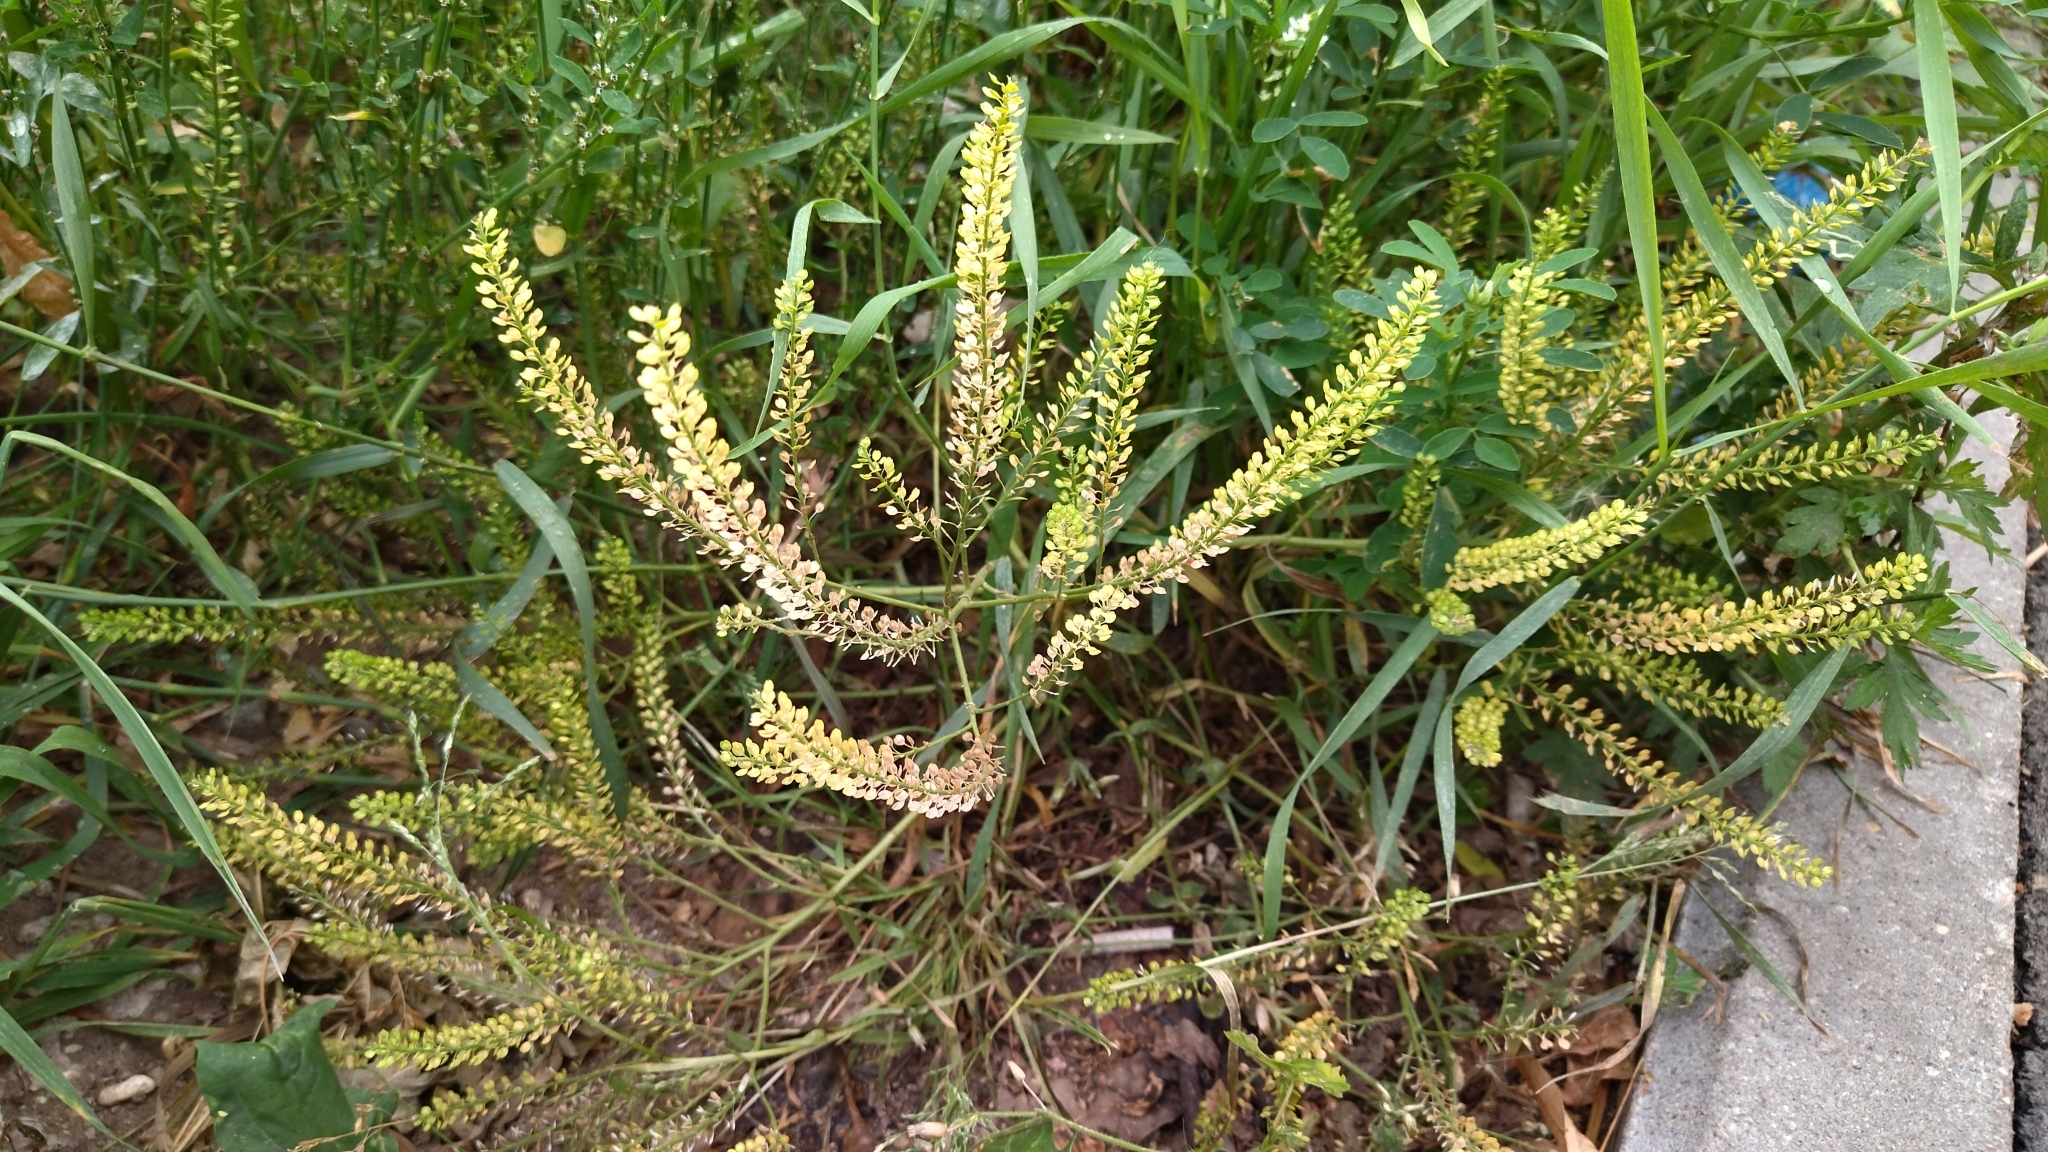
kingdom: Plantae
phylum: Tracheophyta
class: Magnoliopsida
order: Brassicales
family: Brassicaceae
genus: Lepidium
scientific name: Lepidium densiflorum
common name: Miner's pepperwort
